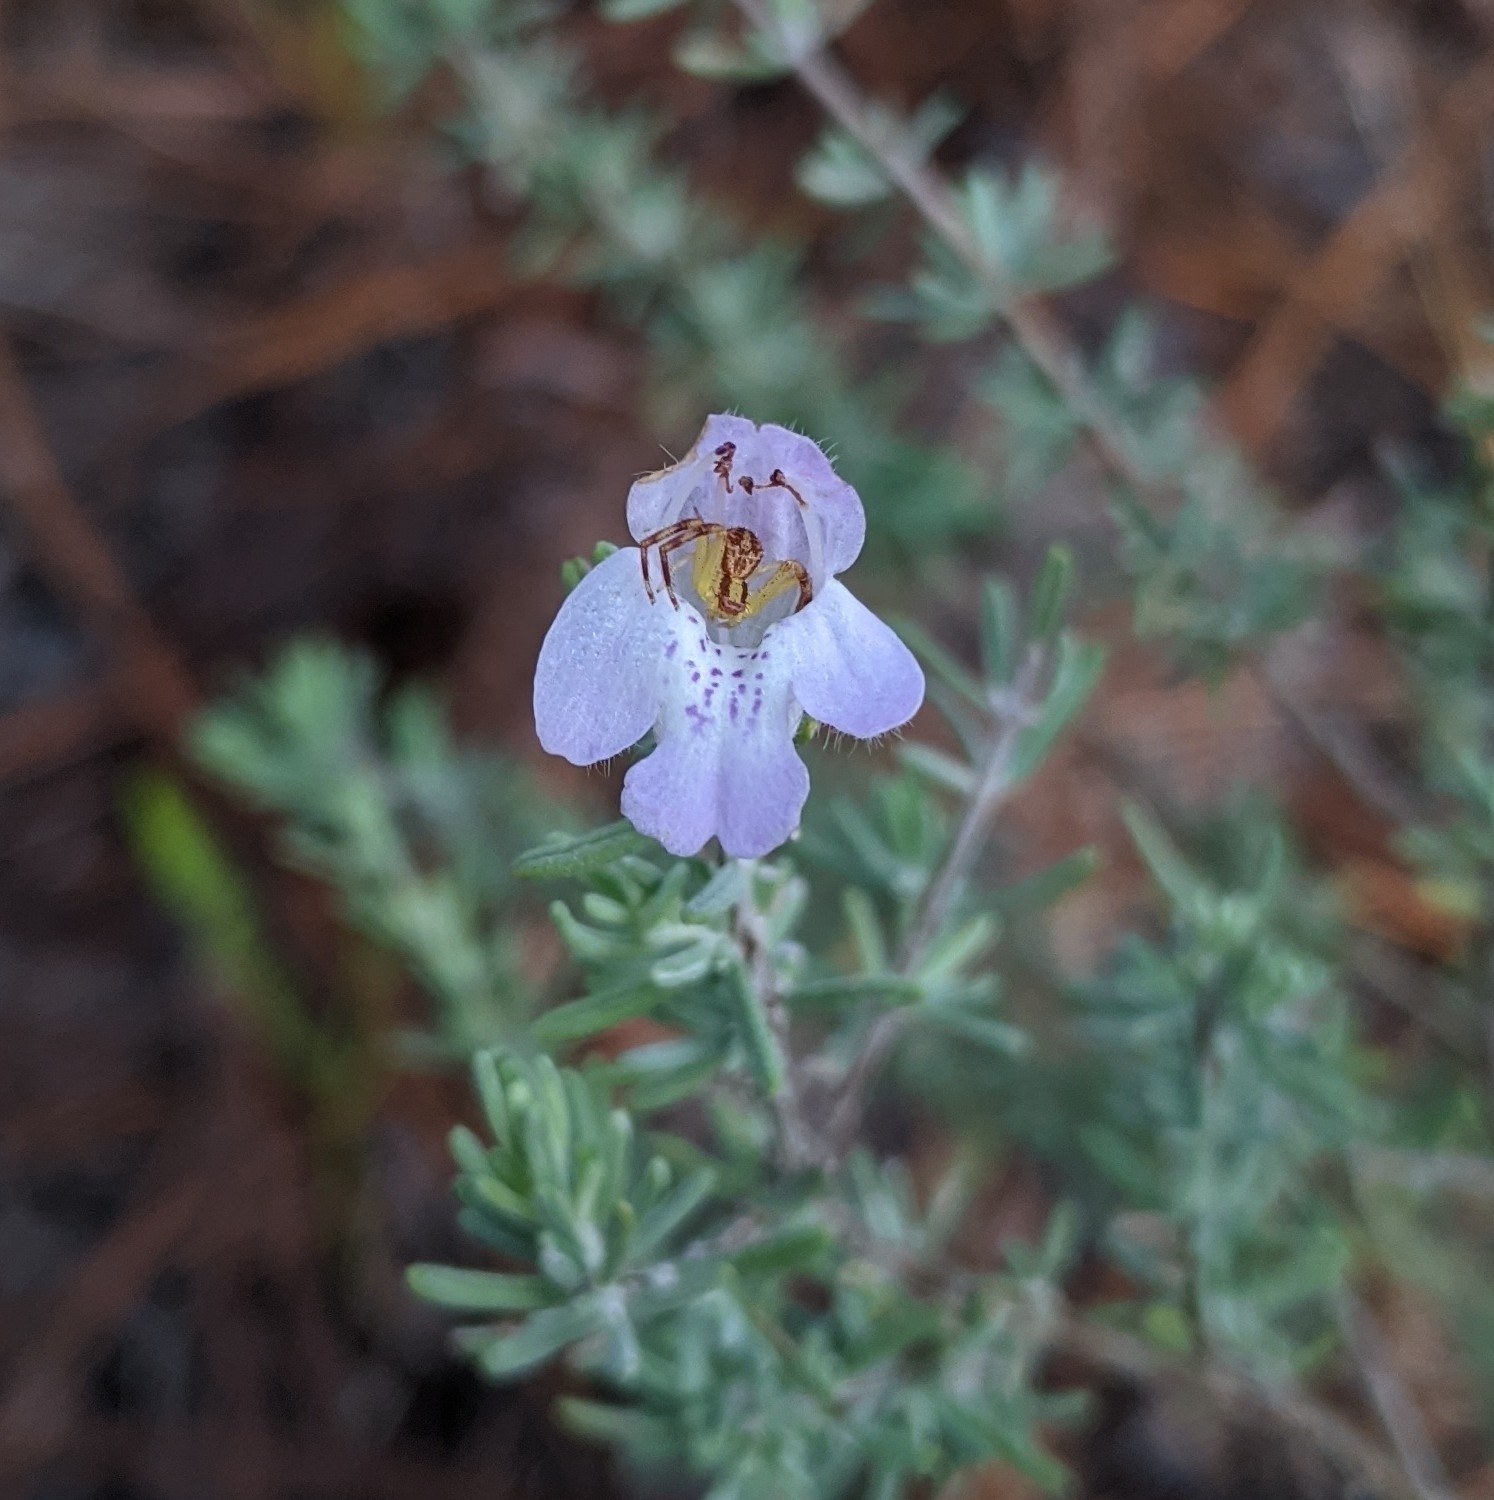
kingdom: Plantae
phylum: Tracheophyta
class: Magnoliopsida
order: Lamiales
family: Lamiaceae
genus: Conradina
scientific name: Conradina canescens
